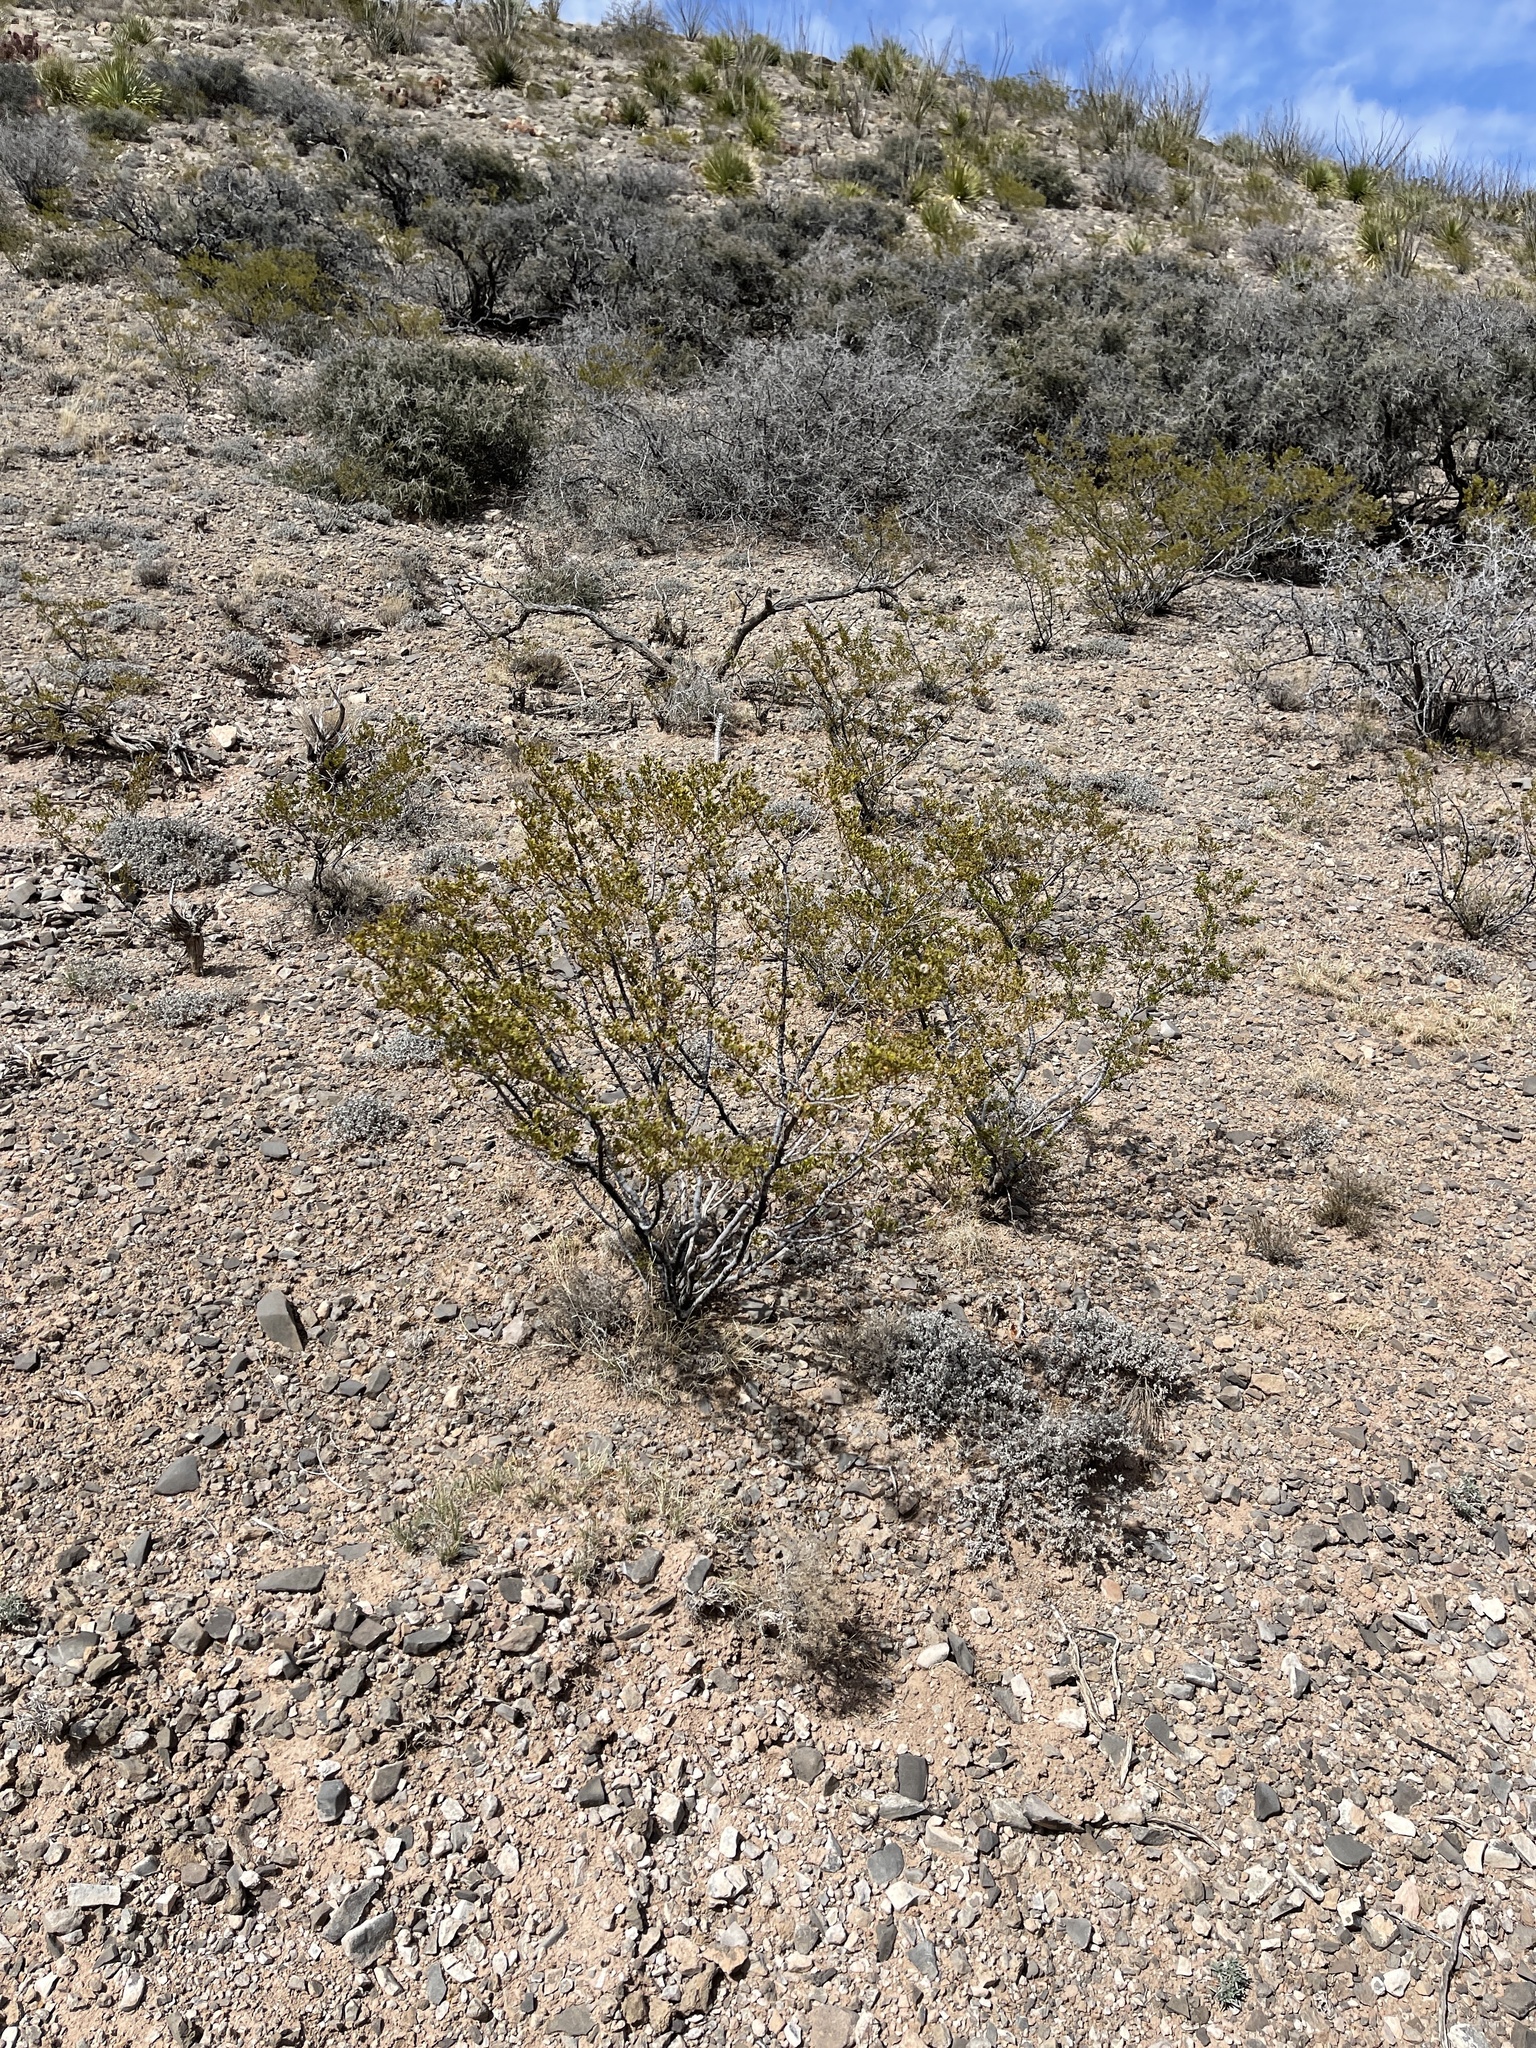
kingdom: Plantae
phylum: Tracheophyta
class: Magnoliopsida
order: Zygophyllales
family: Zygophyllaceae
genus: Larrea
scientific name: Larrea tridentata
